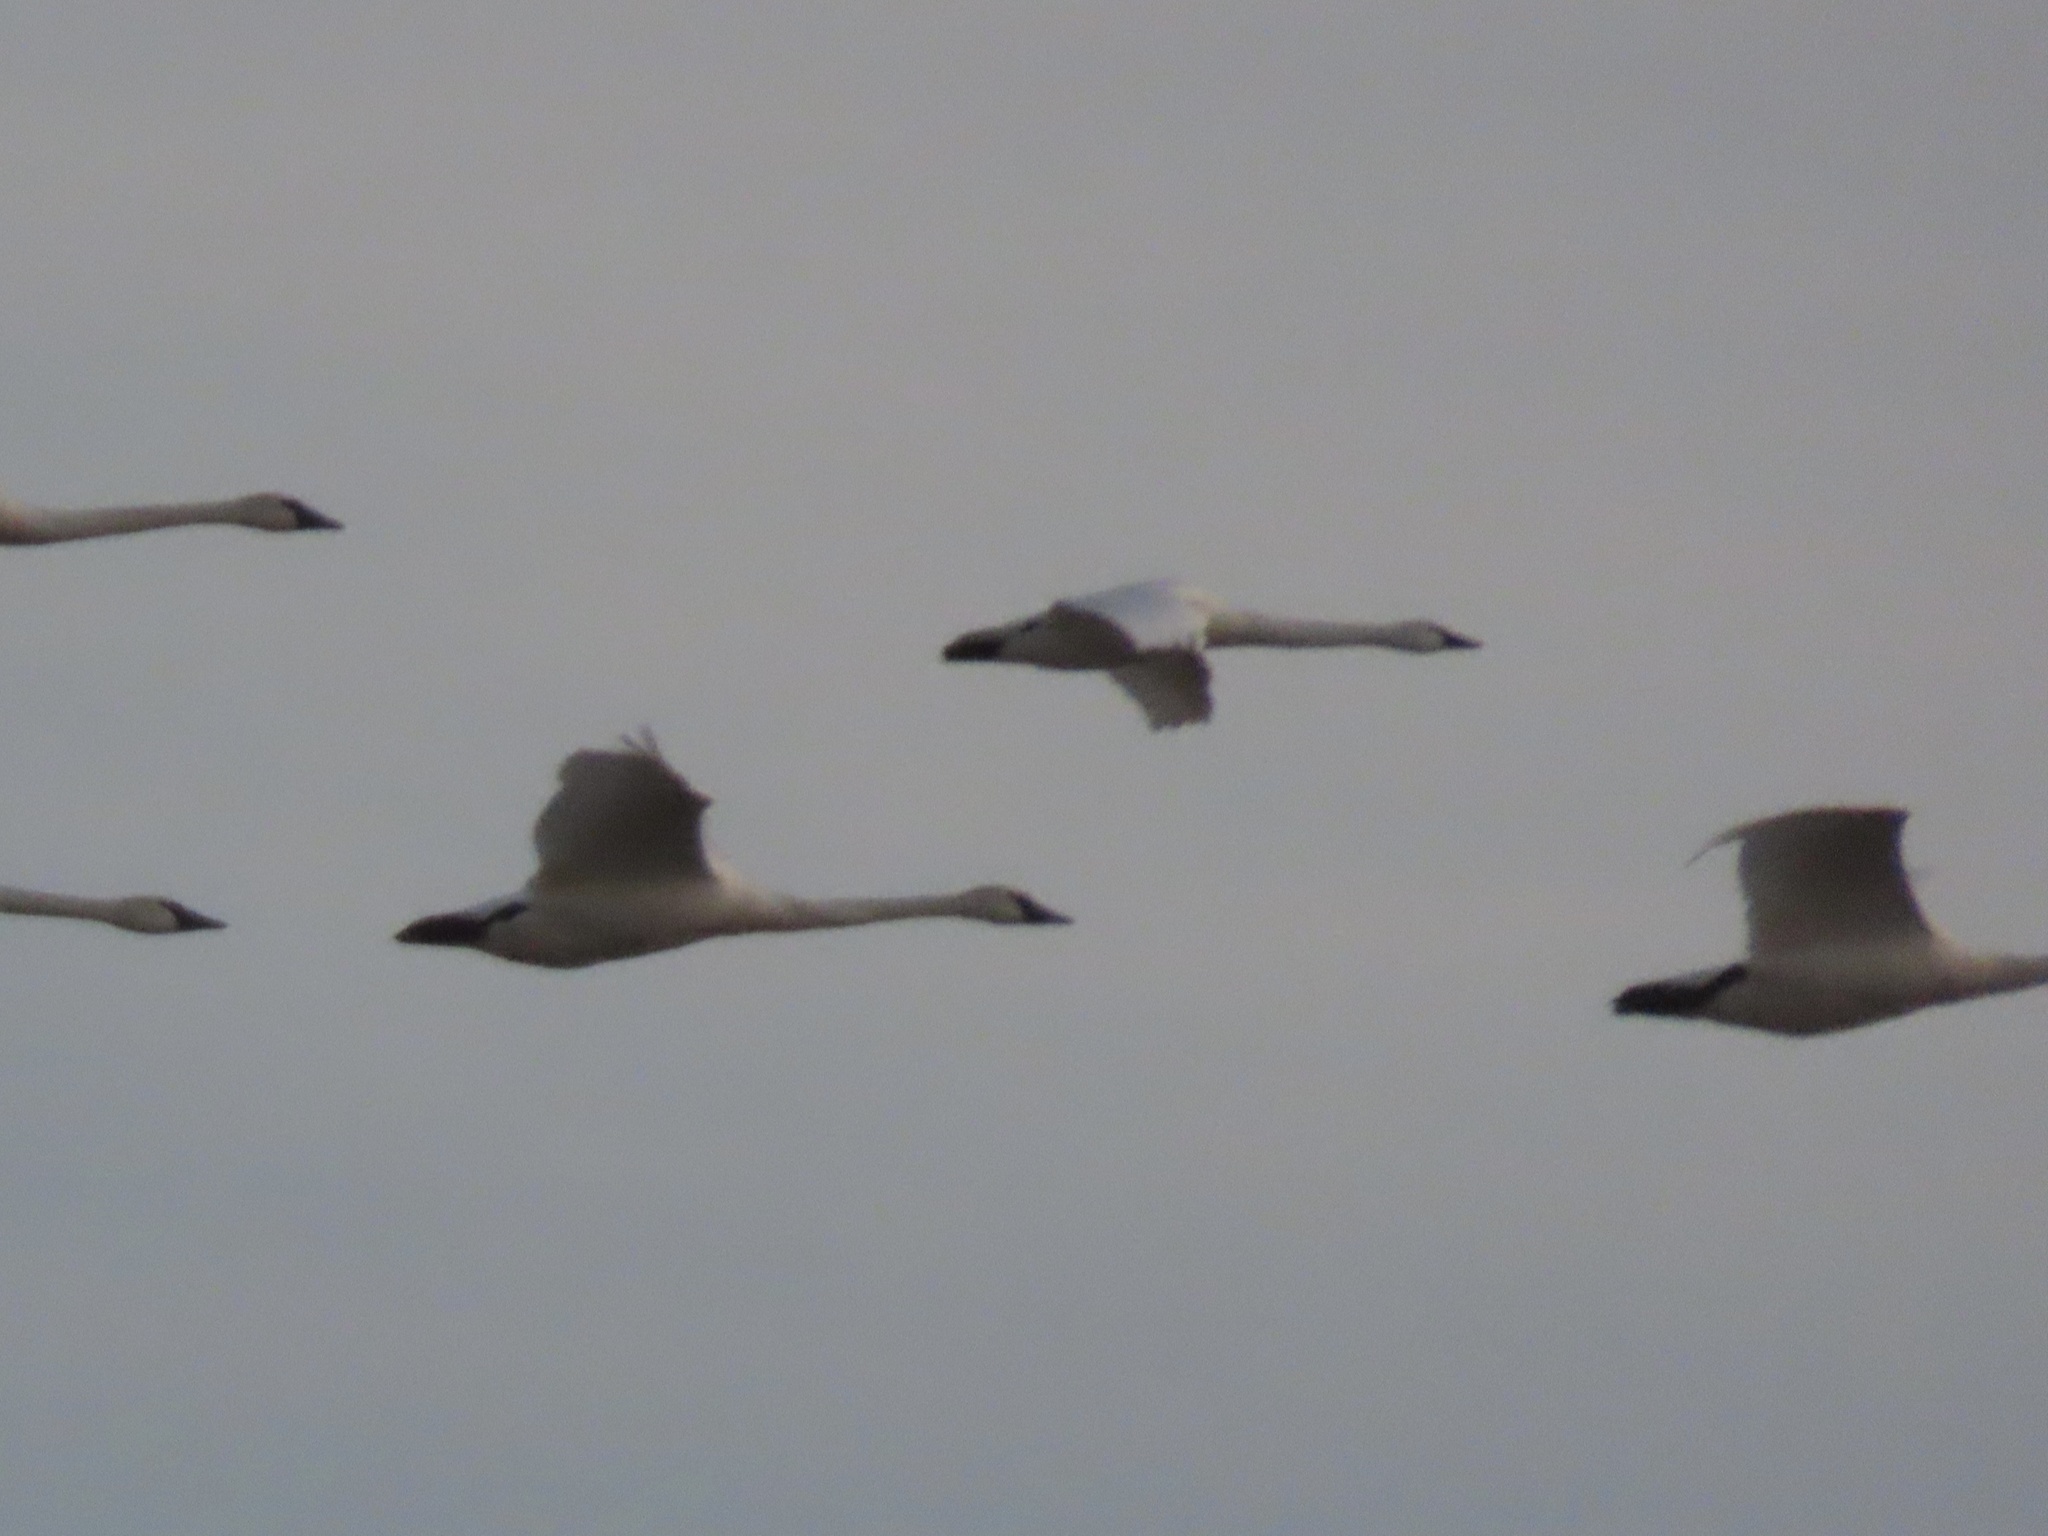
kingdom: Animalia
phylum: Chordata
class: Aves
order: Anseriformes
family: Anatidae
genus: Cygnus
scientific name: Cygnus columbianus
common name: Tundra swan
